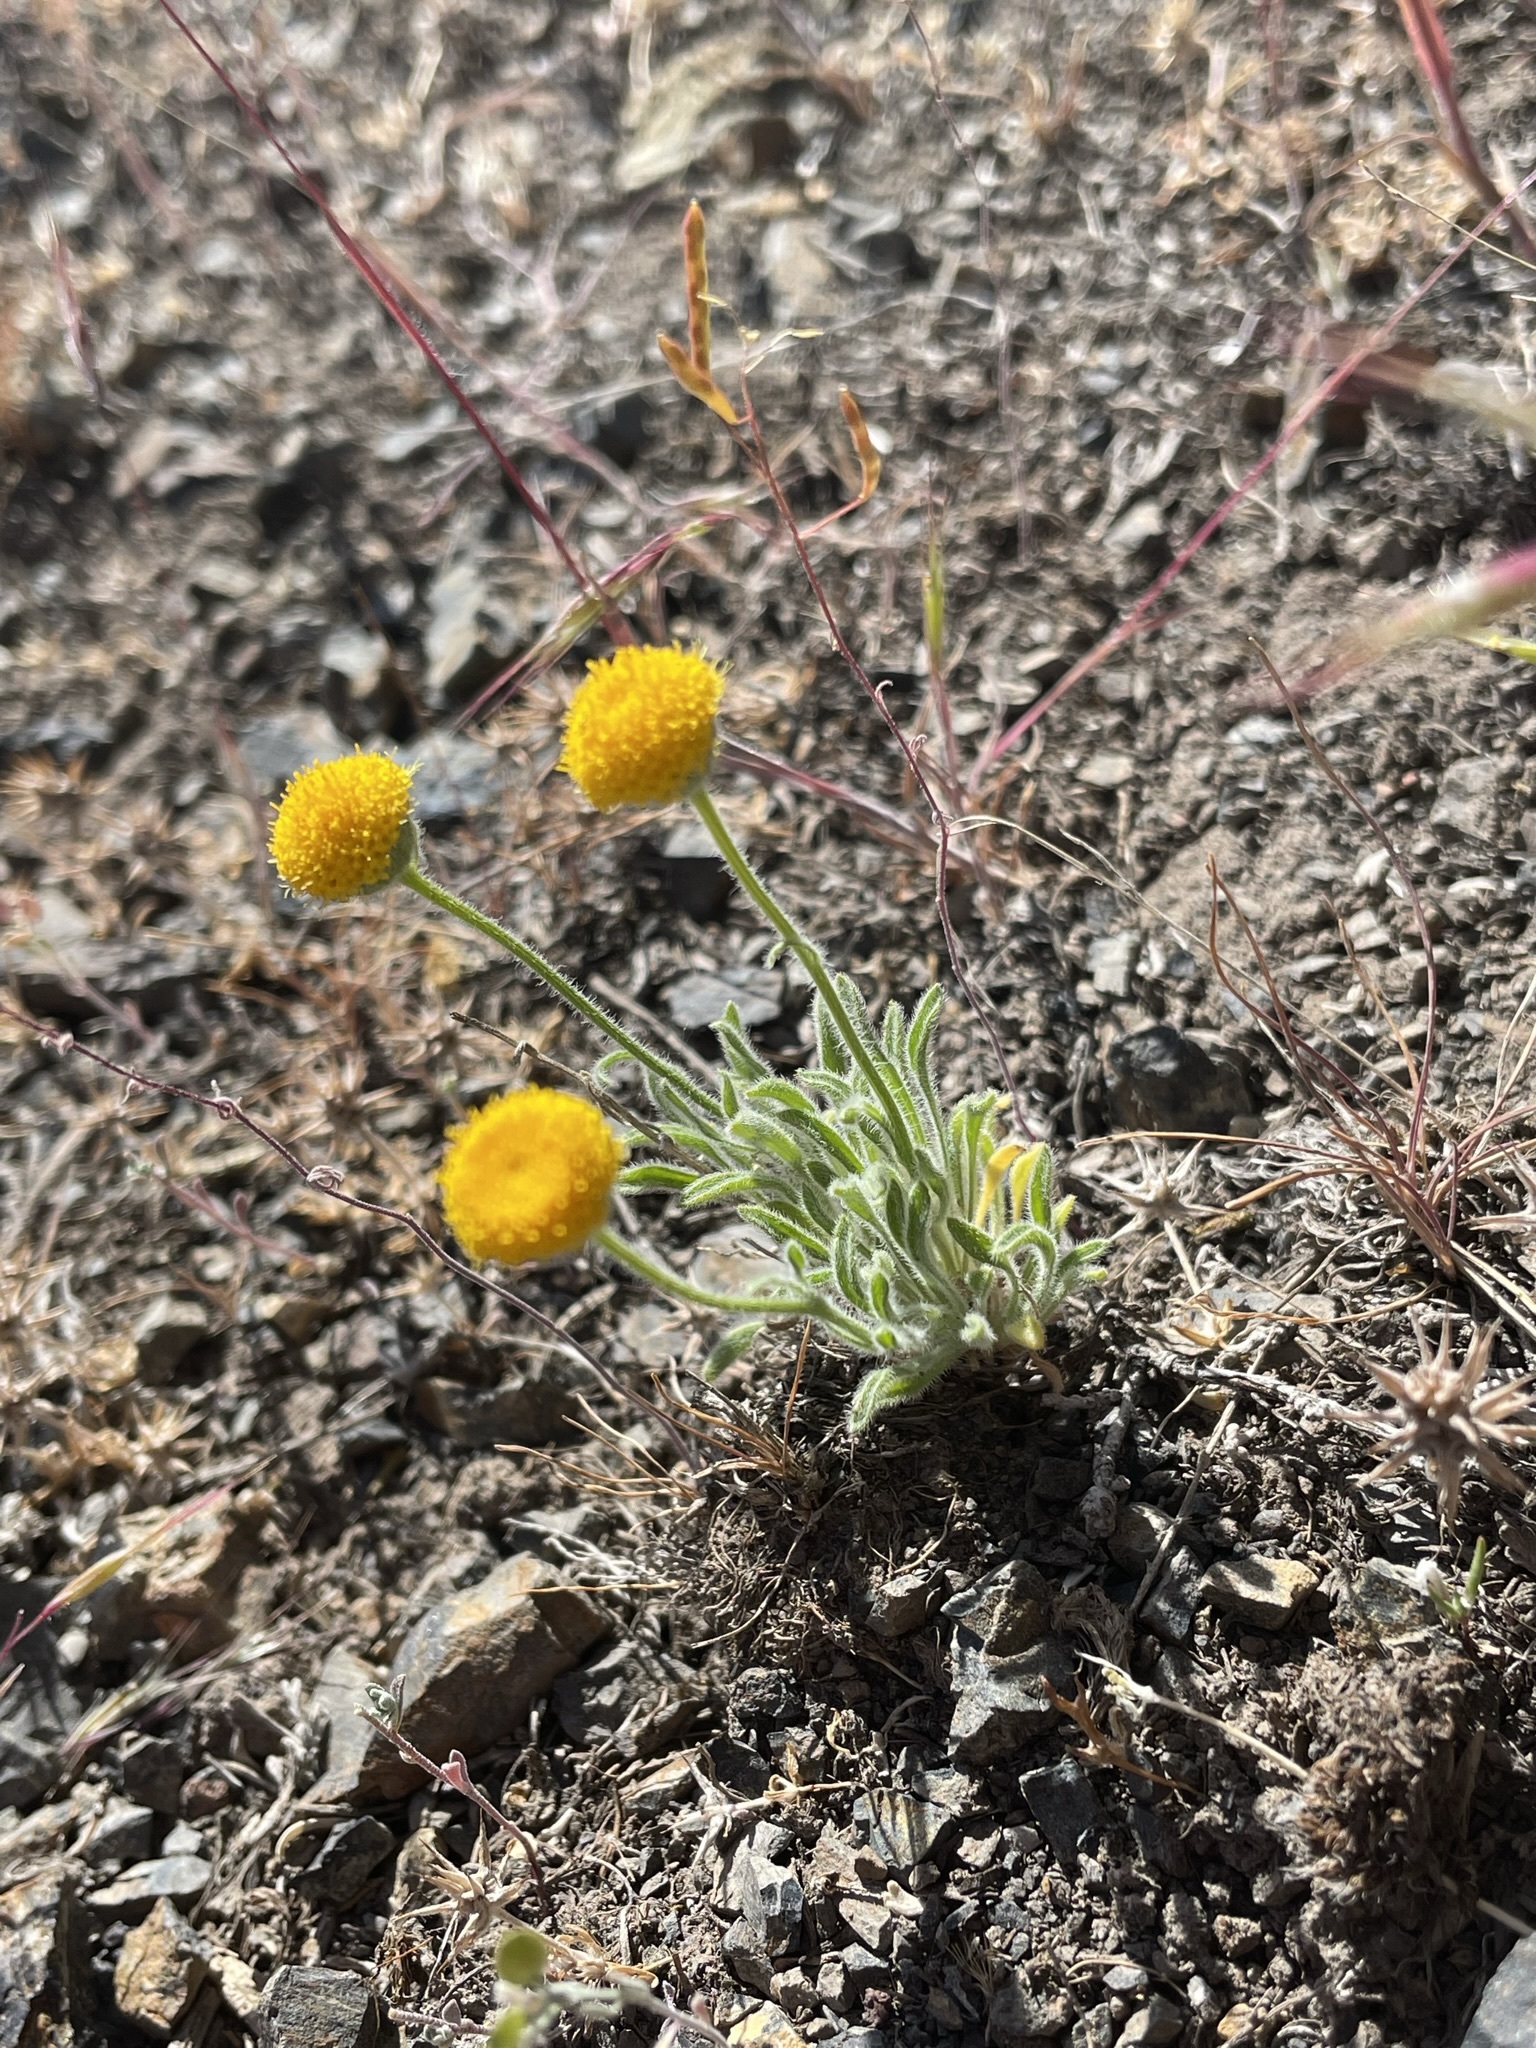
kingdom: Plantae
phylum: Tracheophyta
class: Magnoliopsida
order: Asterales
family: Asteraceae
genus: Erigeron
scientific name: Erigeron aphanactis
